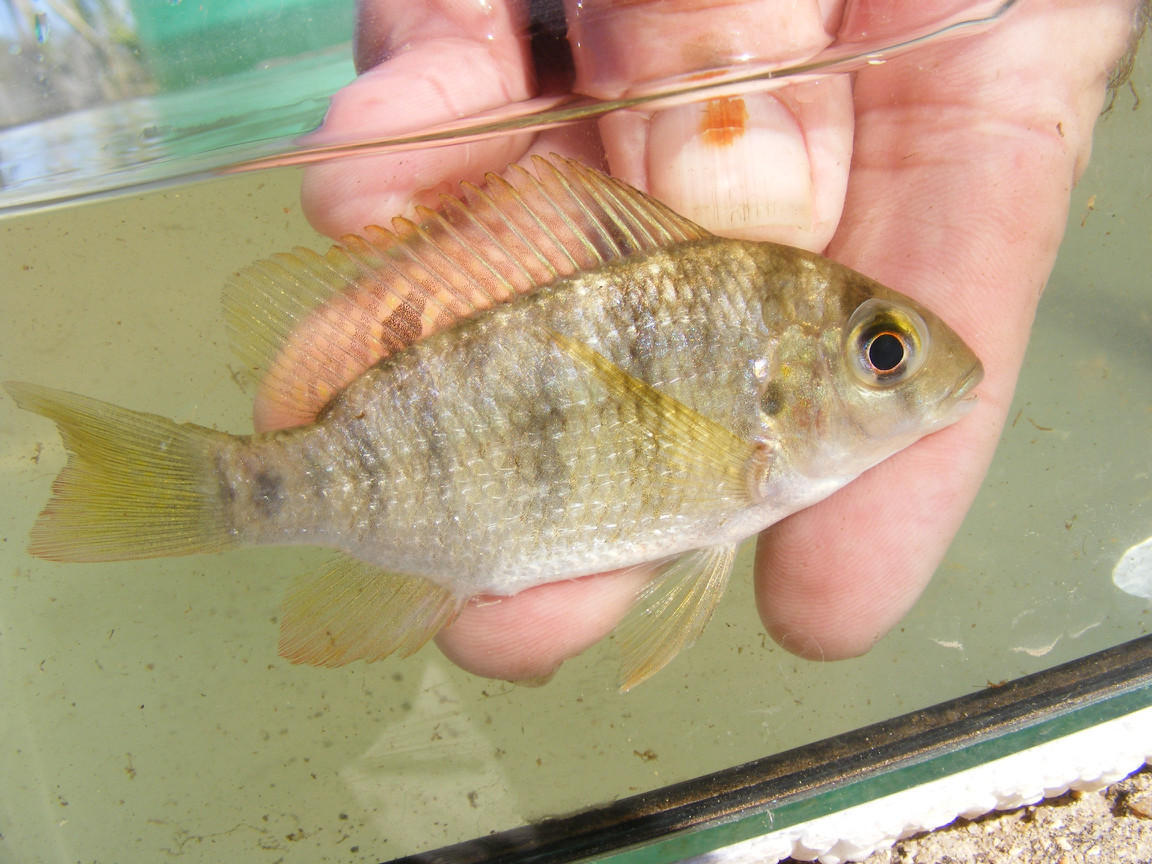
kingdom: Animalia
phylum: Chordata
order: Perciformes
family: Cichlidae
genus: Coptodon
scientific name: Coptodon rendalli
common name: Redbreast tilapia
